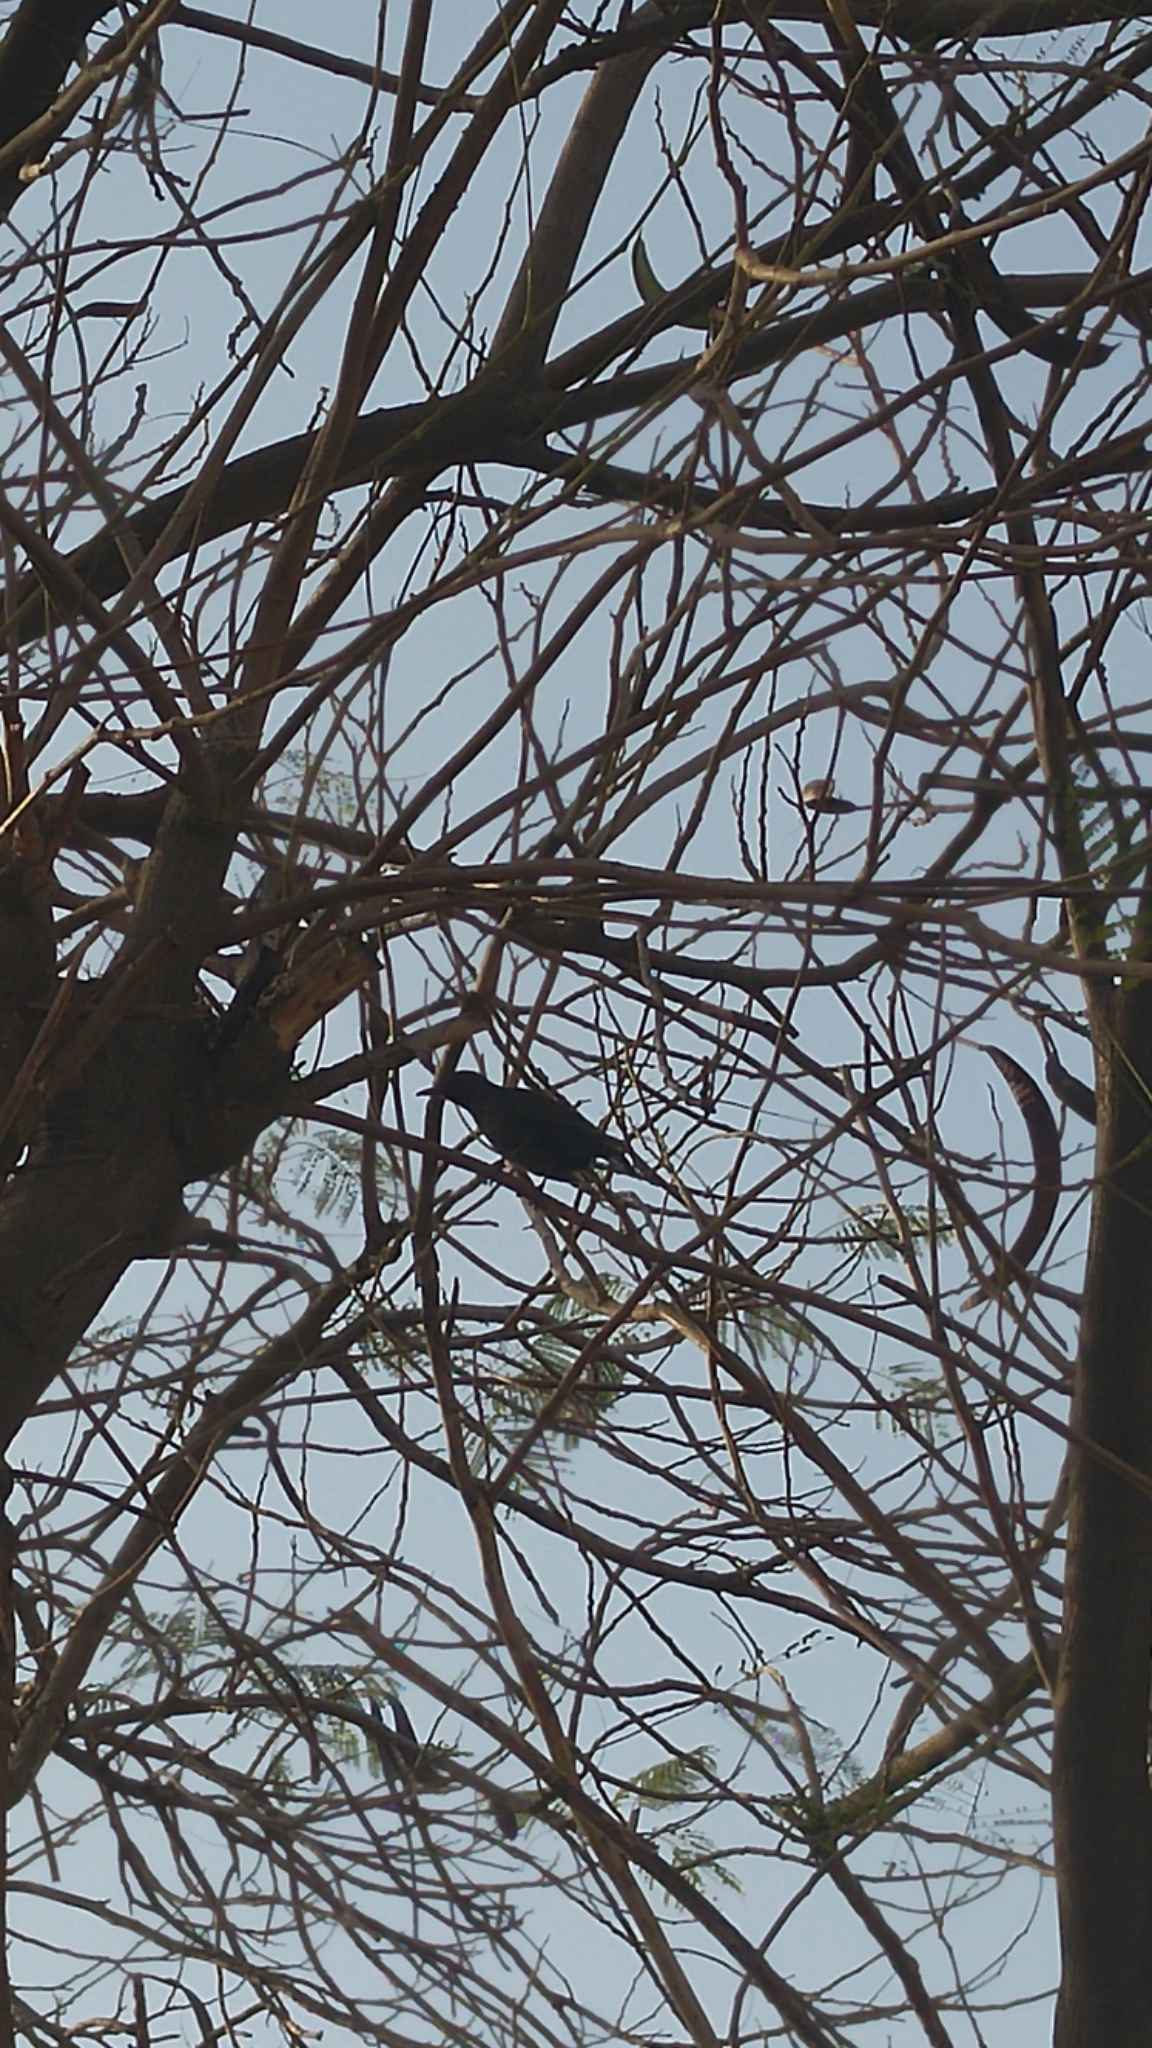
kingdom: Animalia
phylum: Chordata
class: Aves
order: Passeriformes
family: Turdidae
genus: Turdus
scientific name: Turdus merula
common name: Common blackbird
